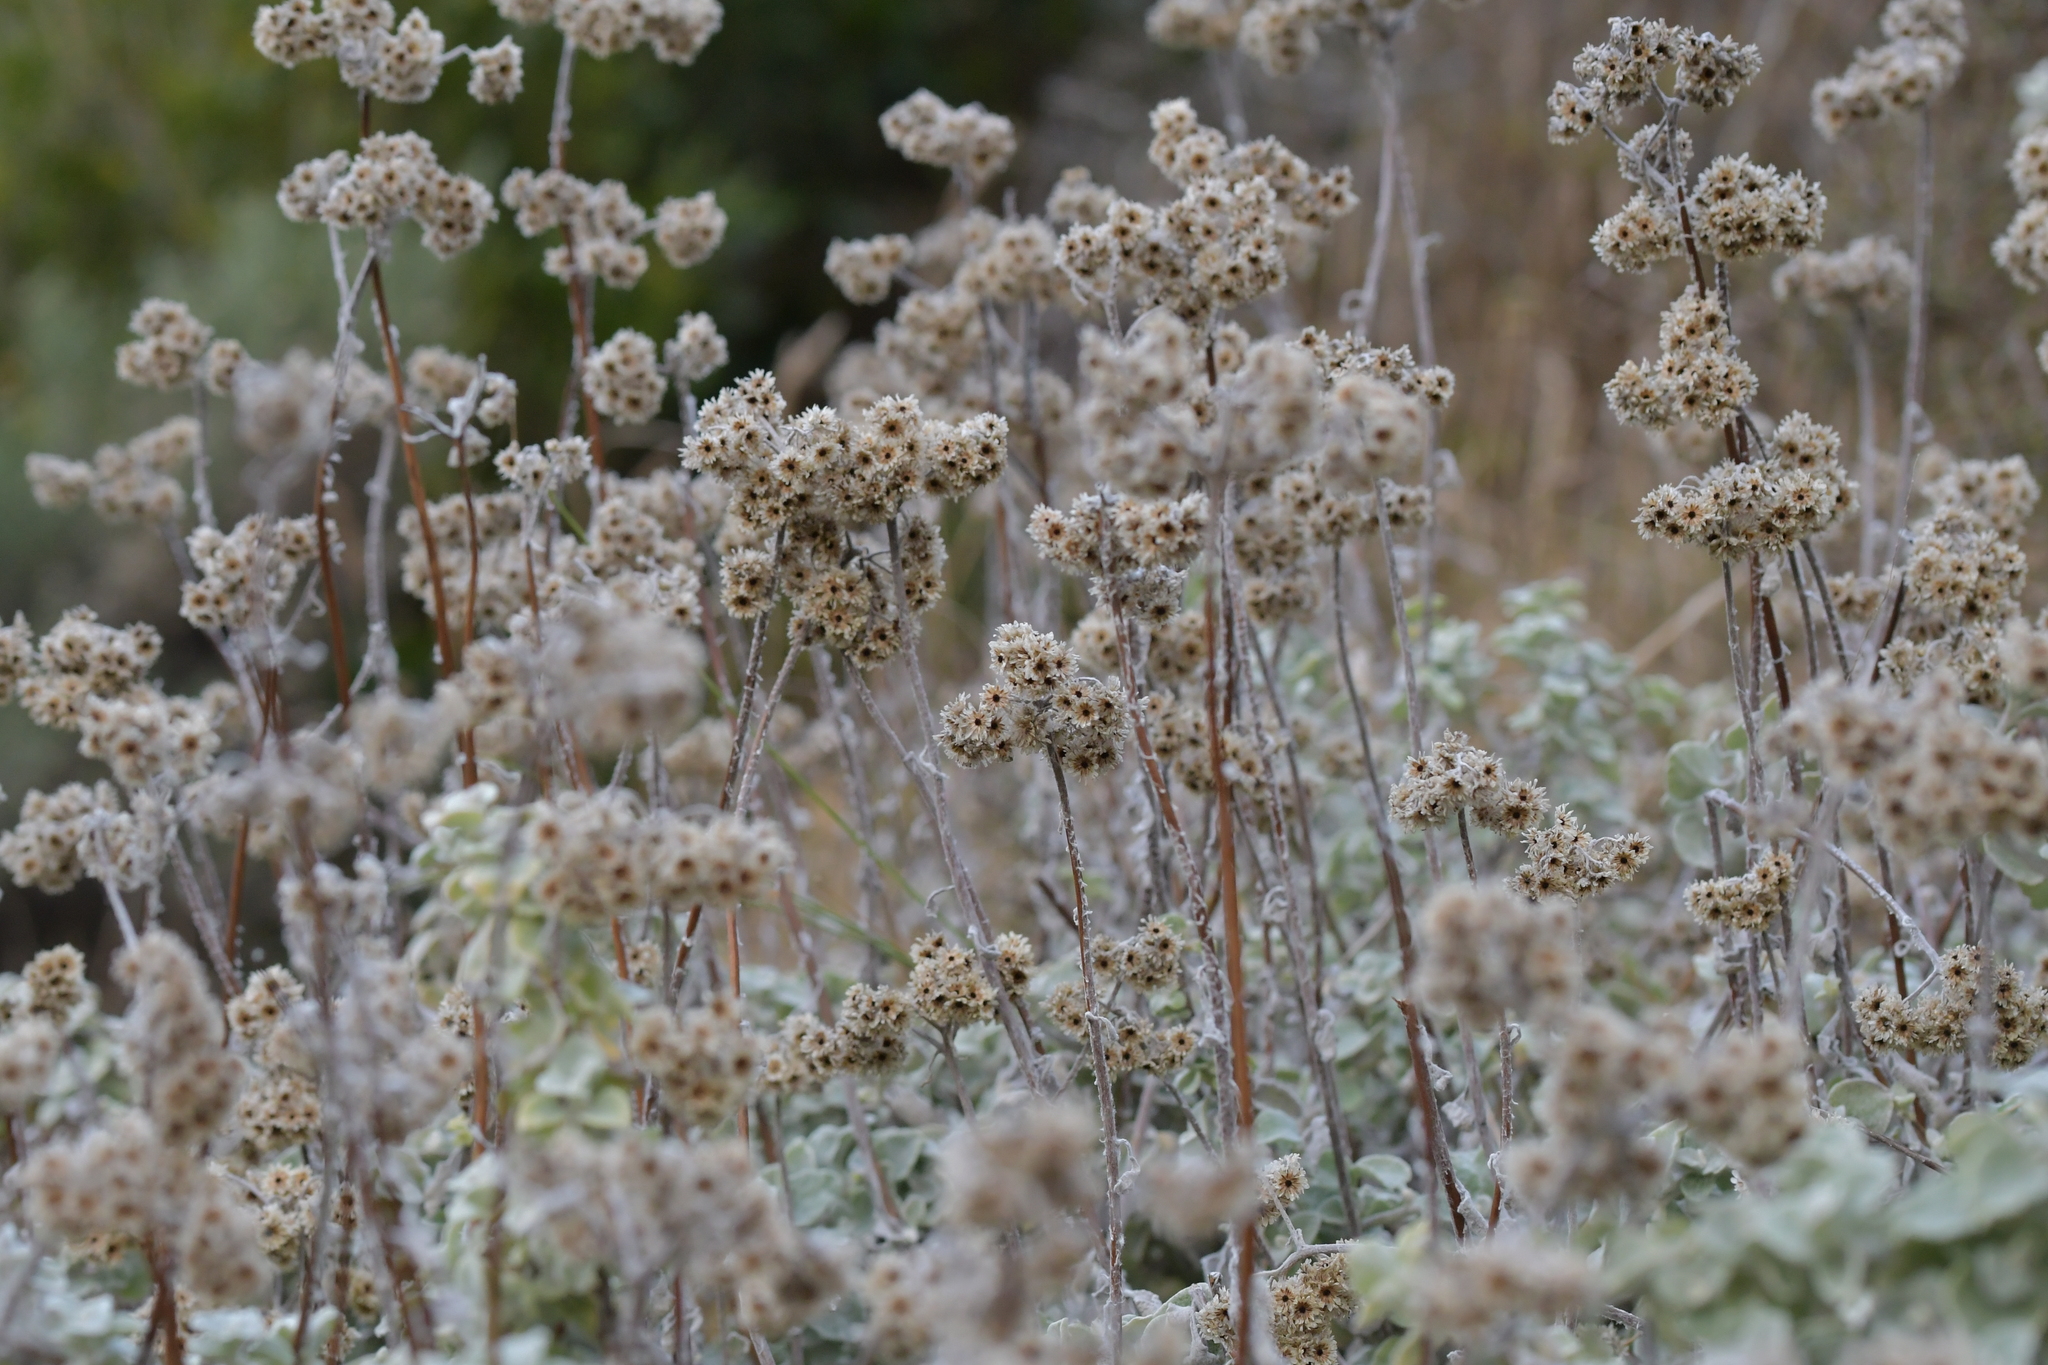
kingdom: Plantae
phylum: Tracheophyta
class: Magnoliopsida
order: Asterales
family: Asteraceae
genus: Helichrysum
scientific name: Helichrysum petiolare
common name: Licorice-plant
